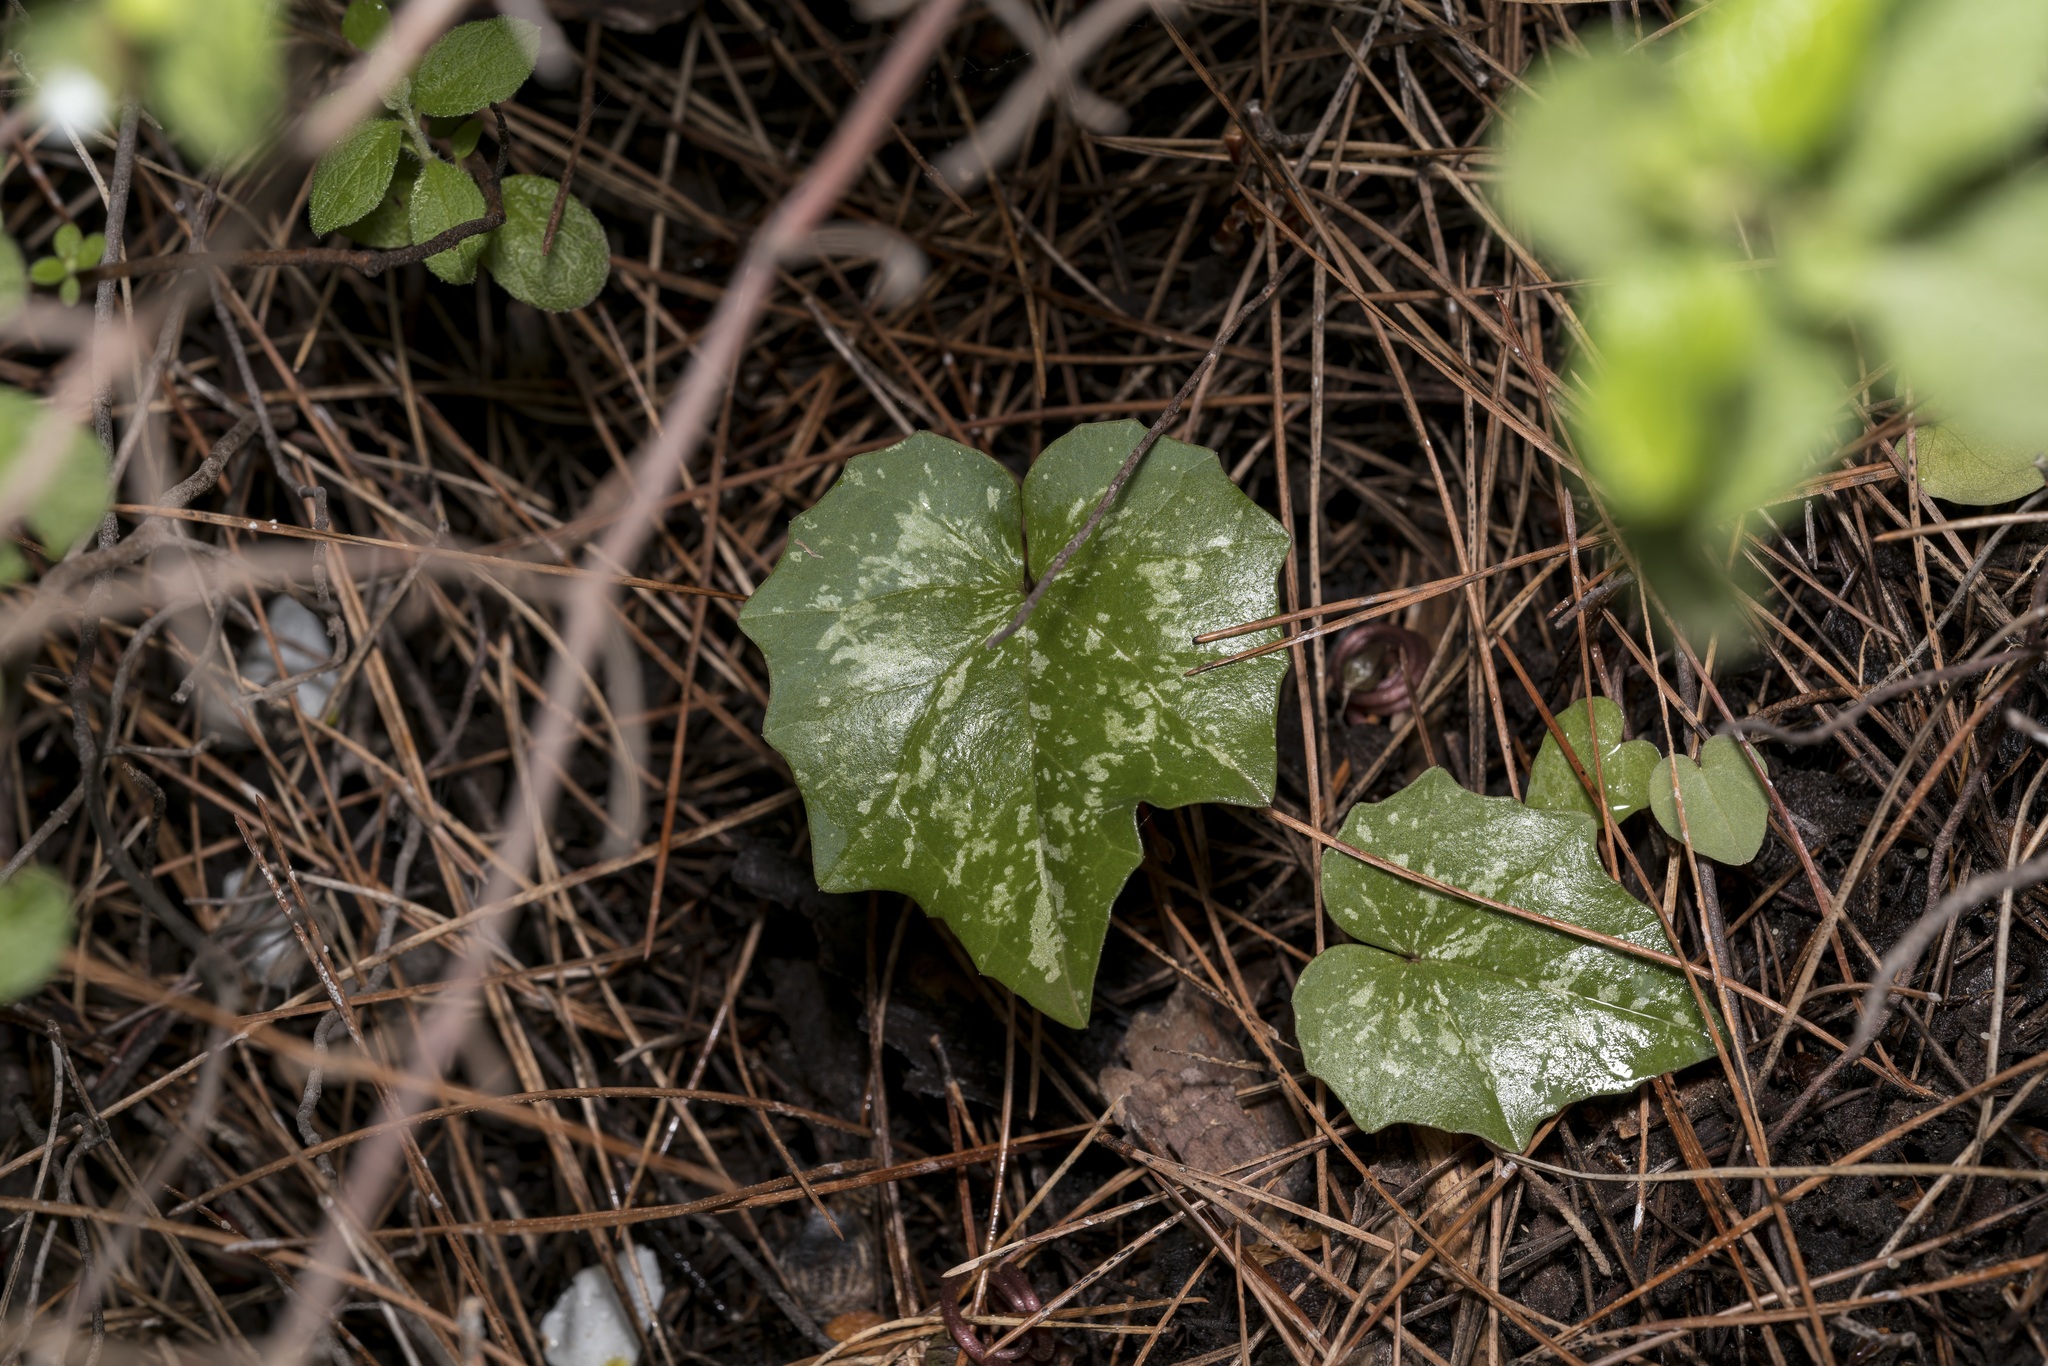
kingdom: Plantae
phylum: Tracheophyta
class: Magnoliopsida
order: Ericales
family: Primulaceae
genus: Cyclamen
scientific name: Cyclamen repandum
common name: Spring sowbread
